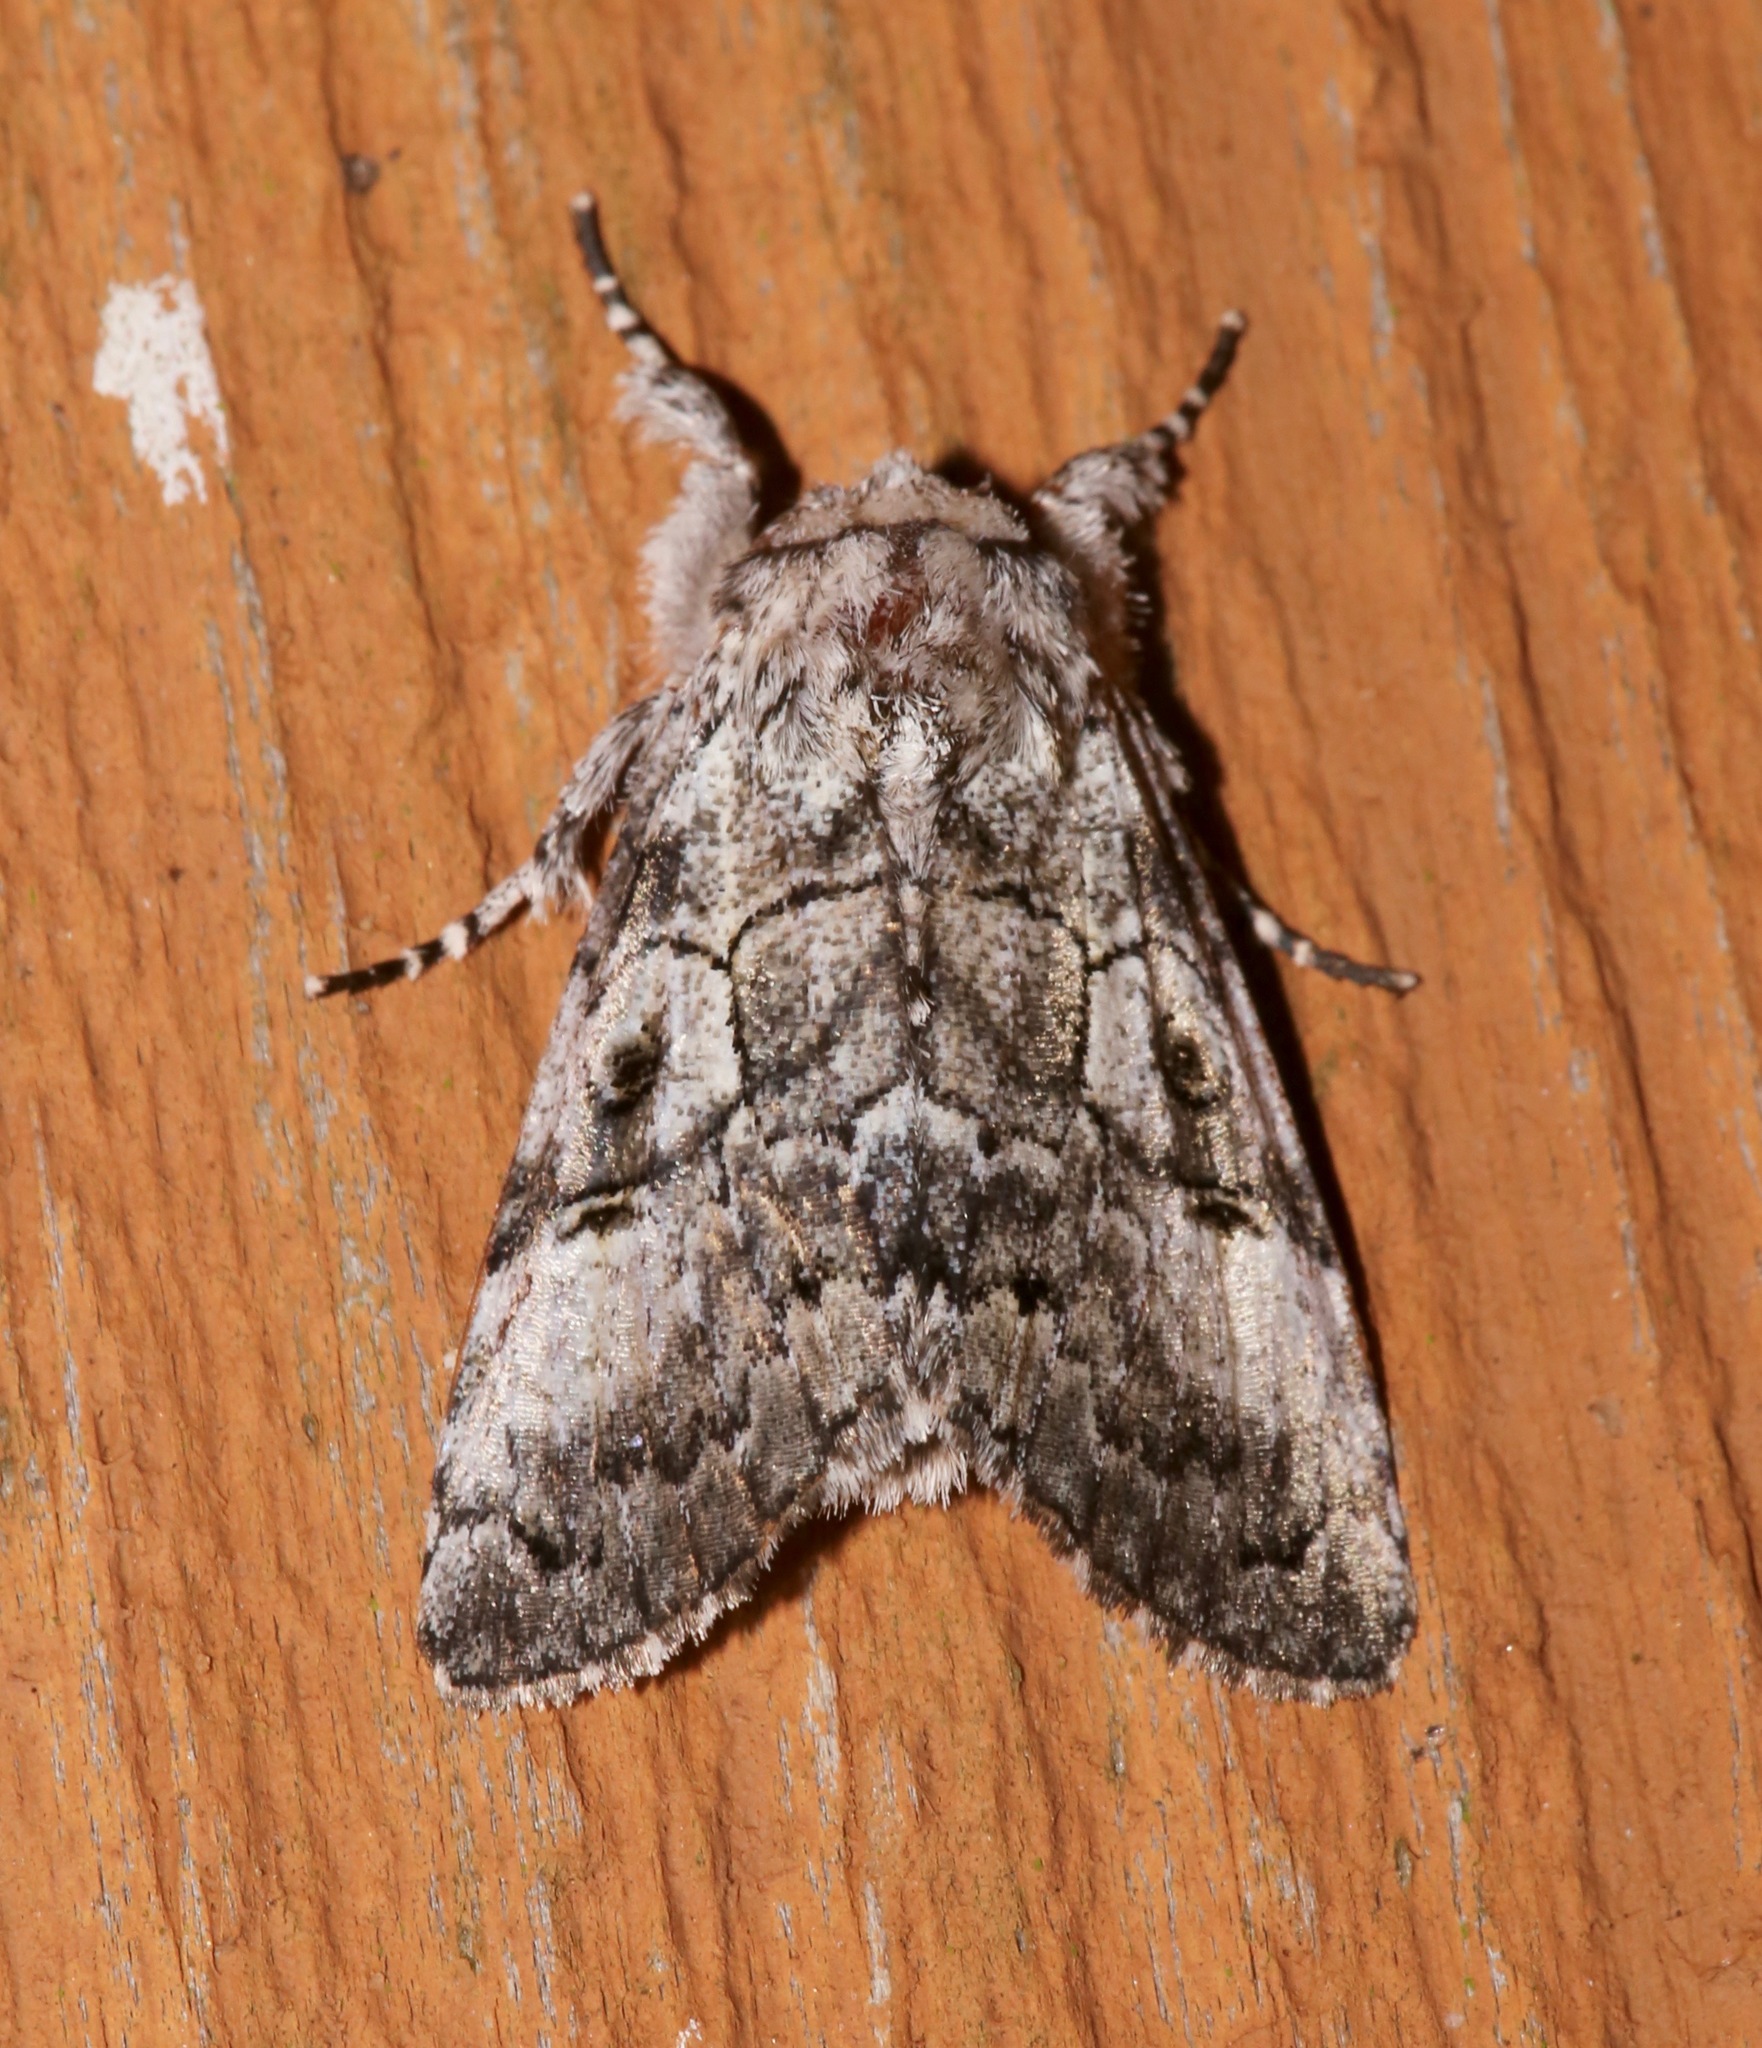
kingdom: Animalia
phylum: Arthropoda
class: Insecta
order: Lepidoptera
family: Noctuidae
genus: Charadra
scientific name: Charadra deridens
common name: Marbled tuffet
